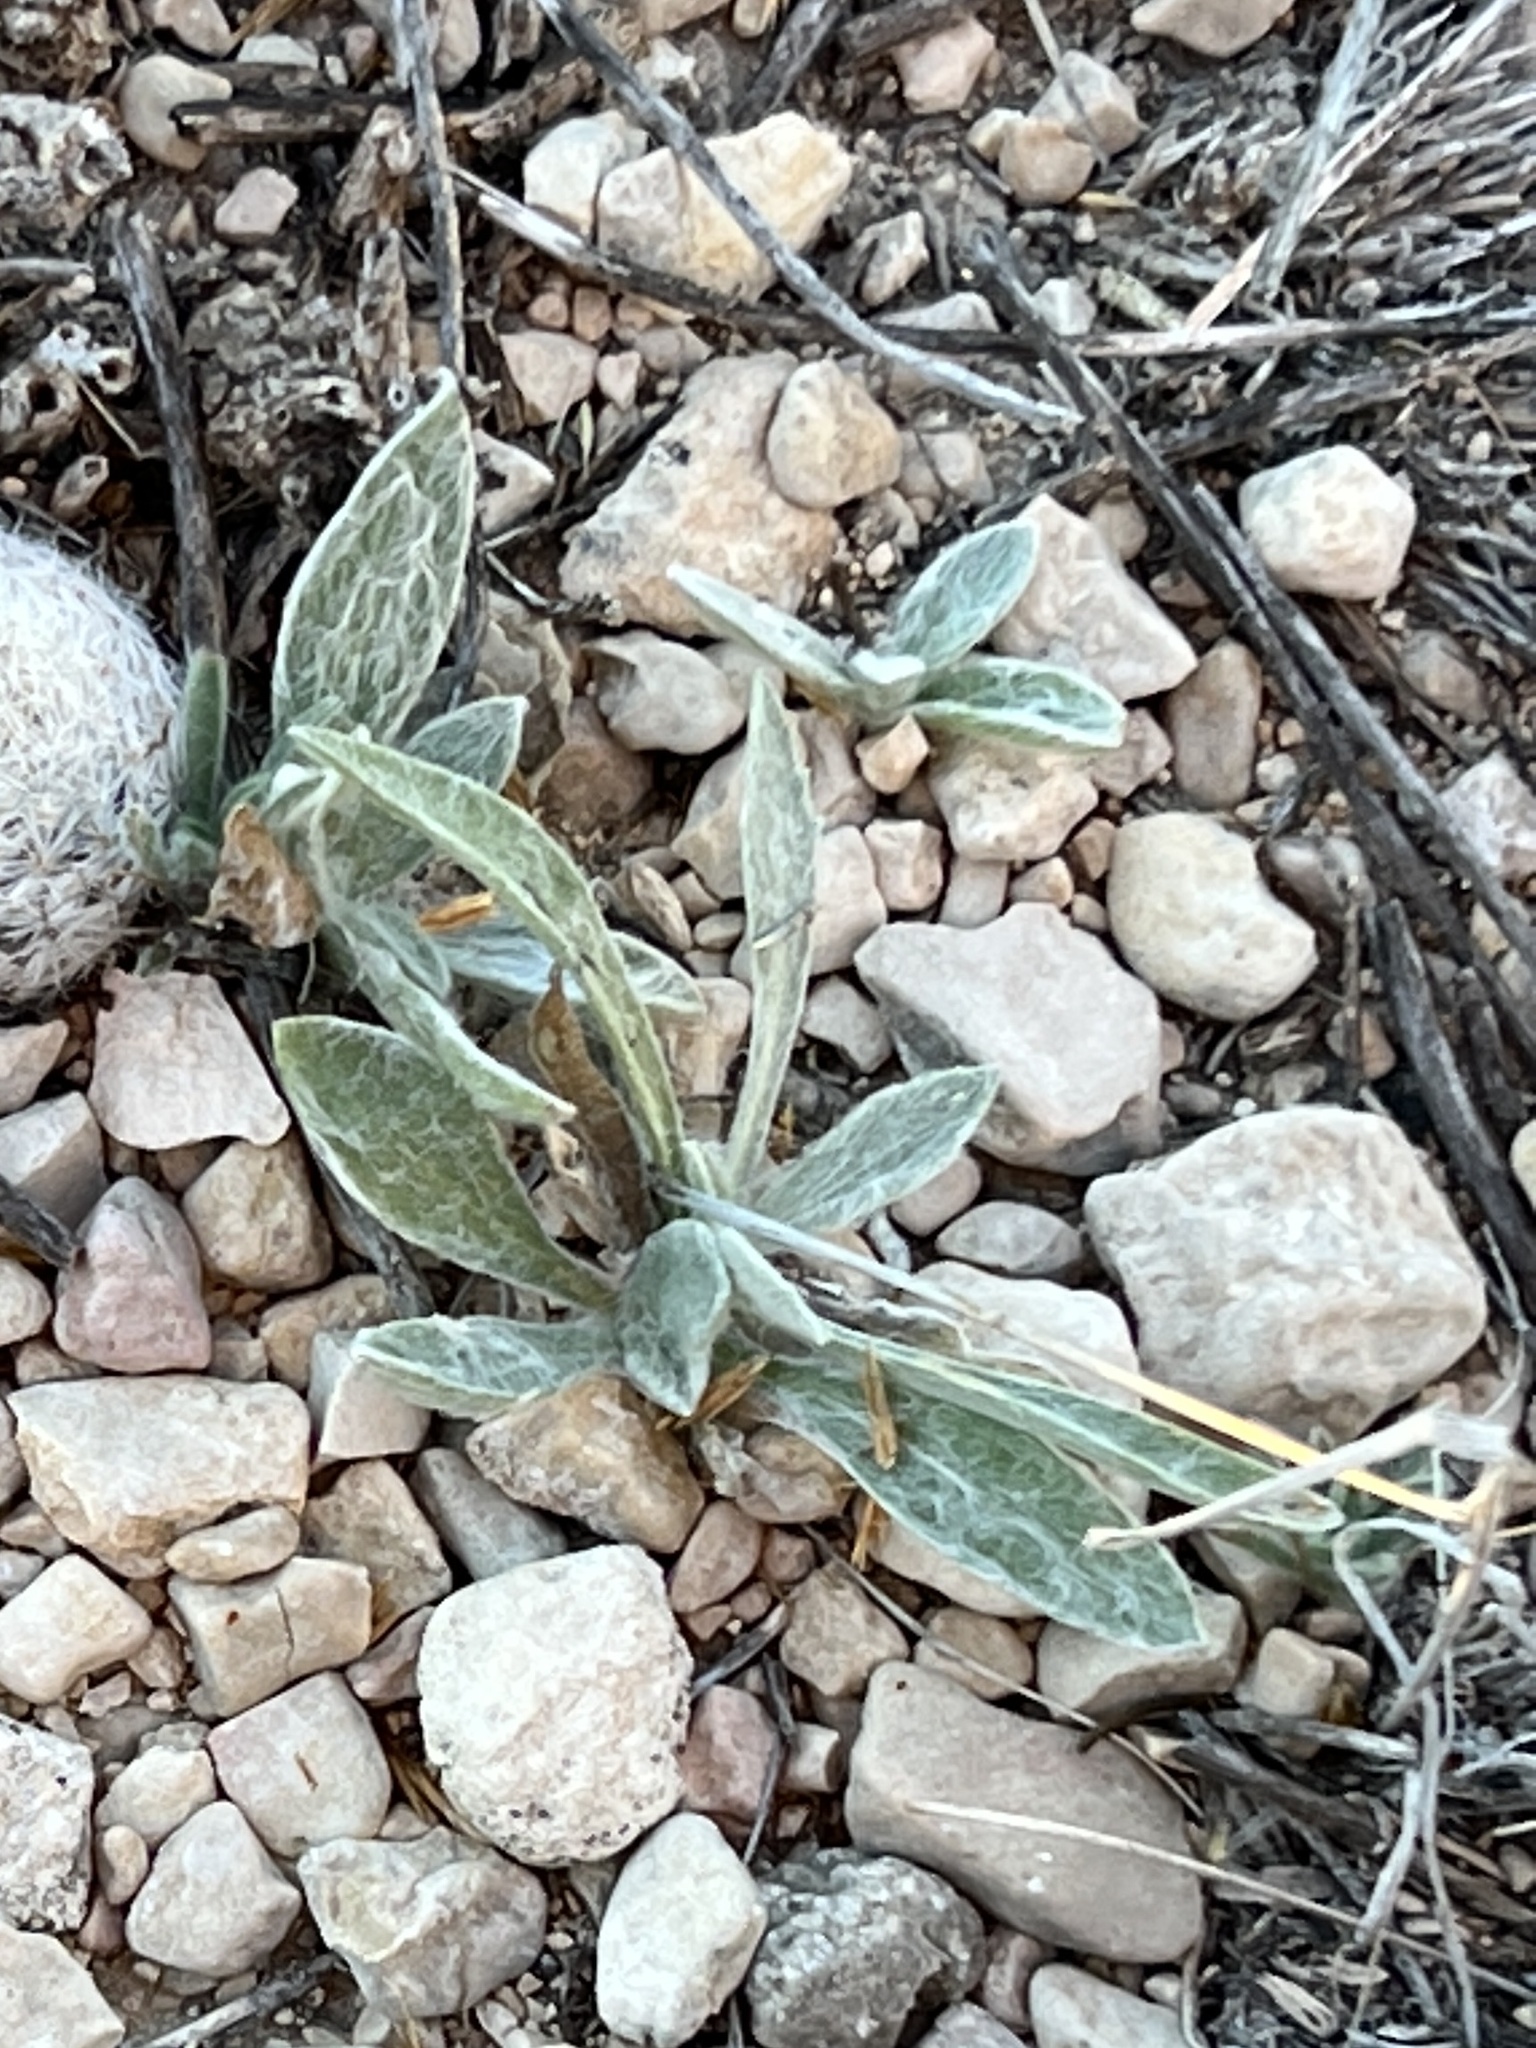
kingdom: Plantae
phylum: Tracheophyta
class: Magnoliopsida
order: Asterales
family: Asteraceae
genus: Psilostrophe
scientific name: Psilostrophe tagetina
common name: Marigold paper-flower
